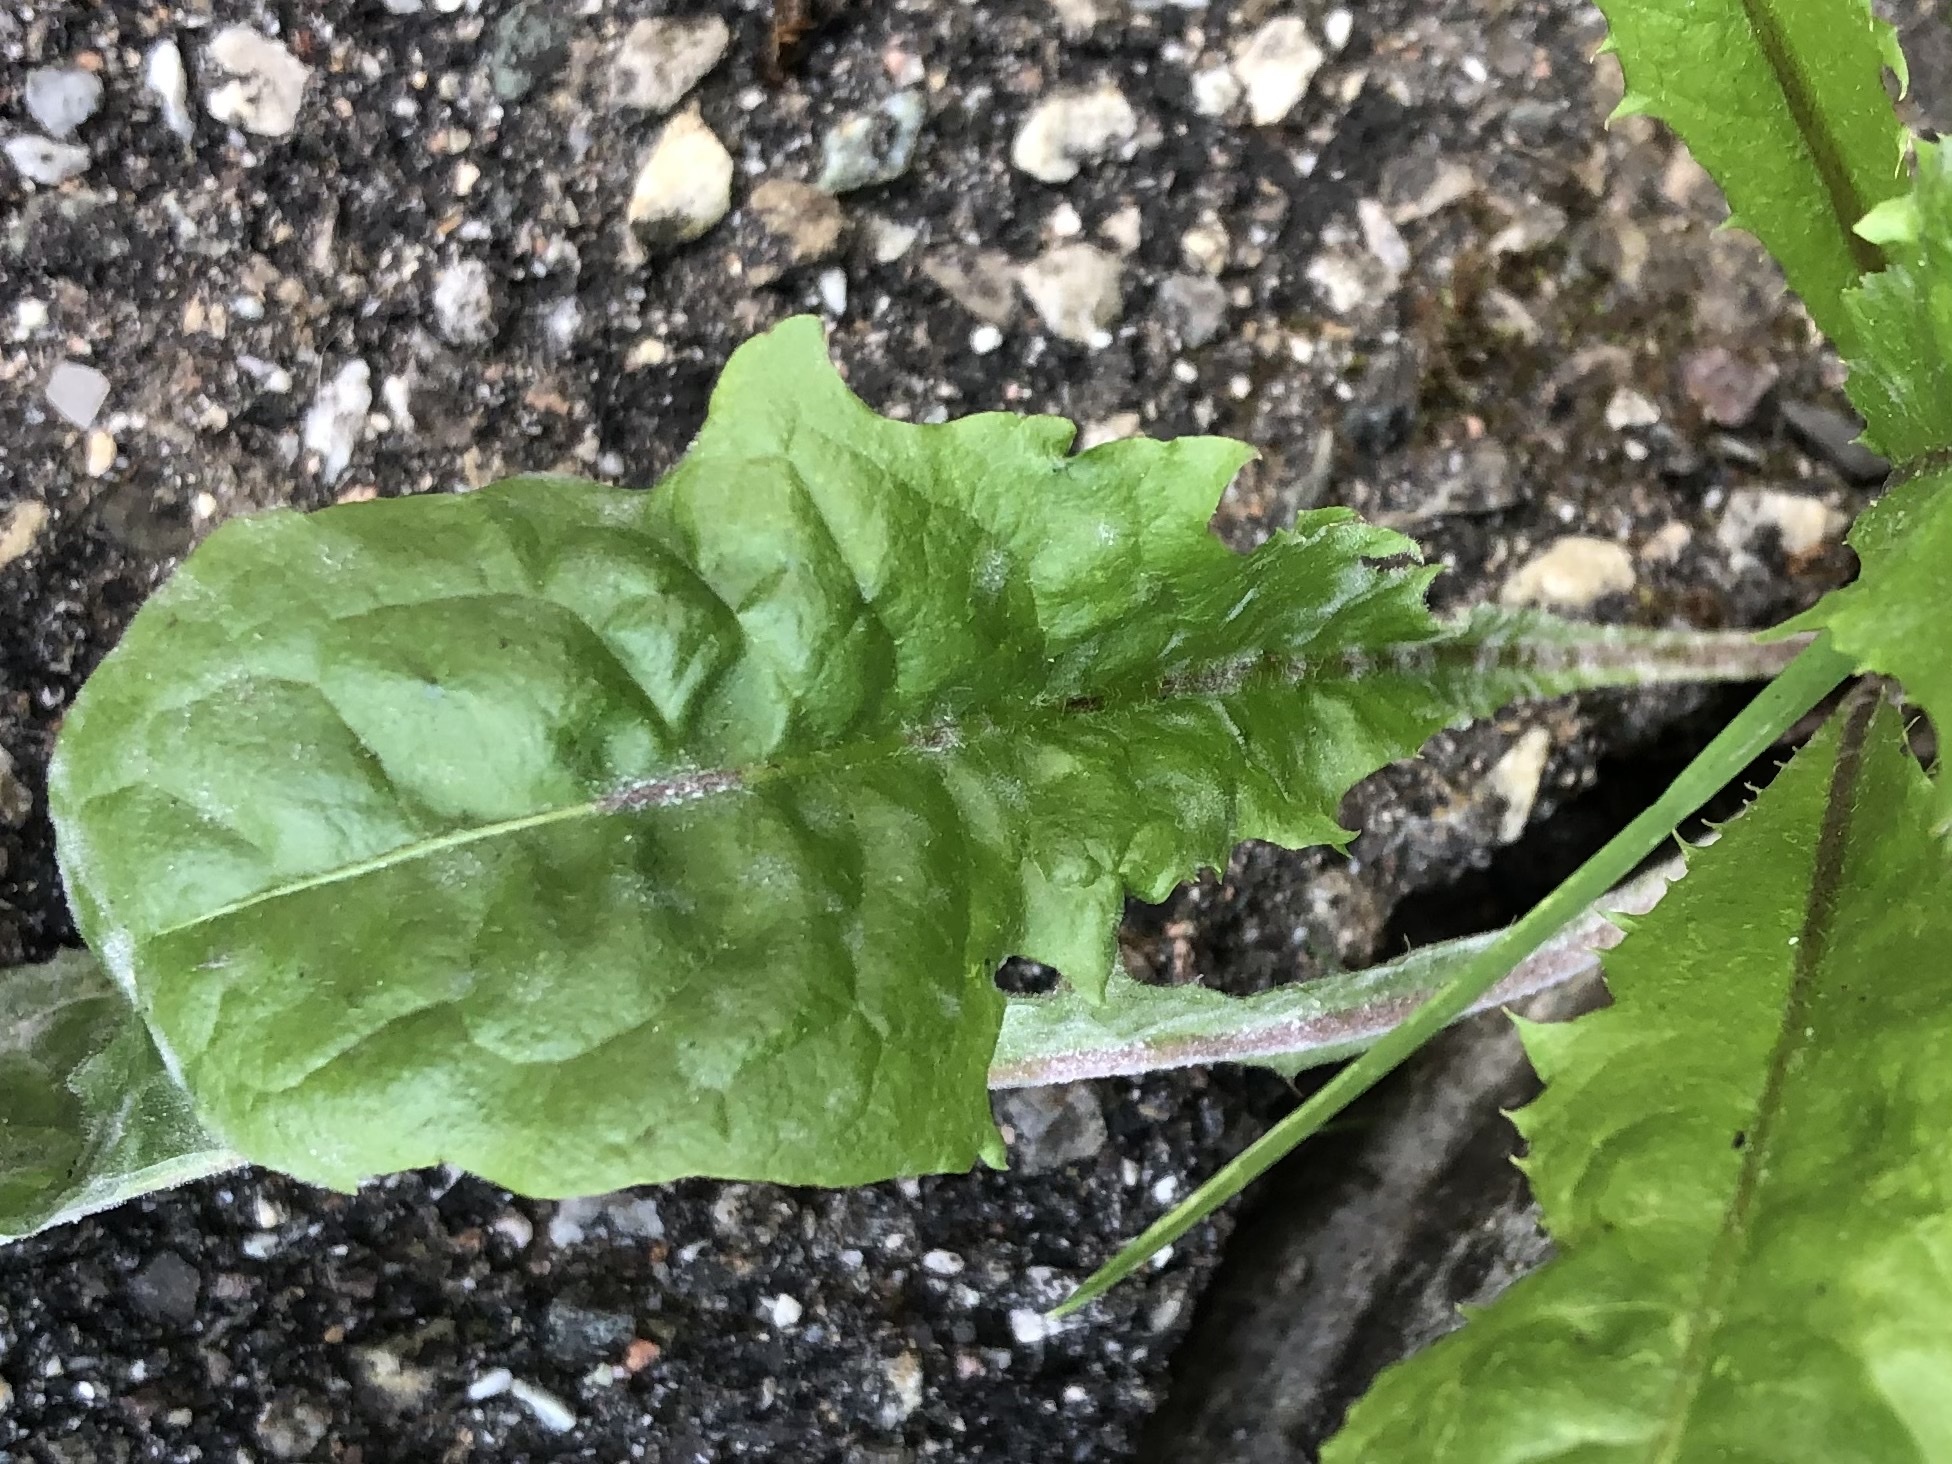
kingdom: Plantae
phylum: Tracheophyta
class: Magnoliopsida
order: Asterales
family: Asteraceae
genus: Taraxacum
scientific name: Taraxacum officinale
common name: Common dandelion
